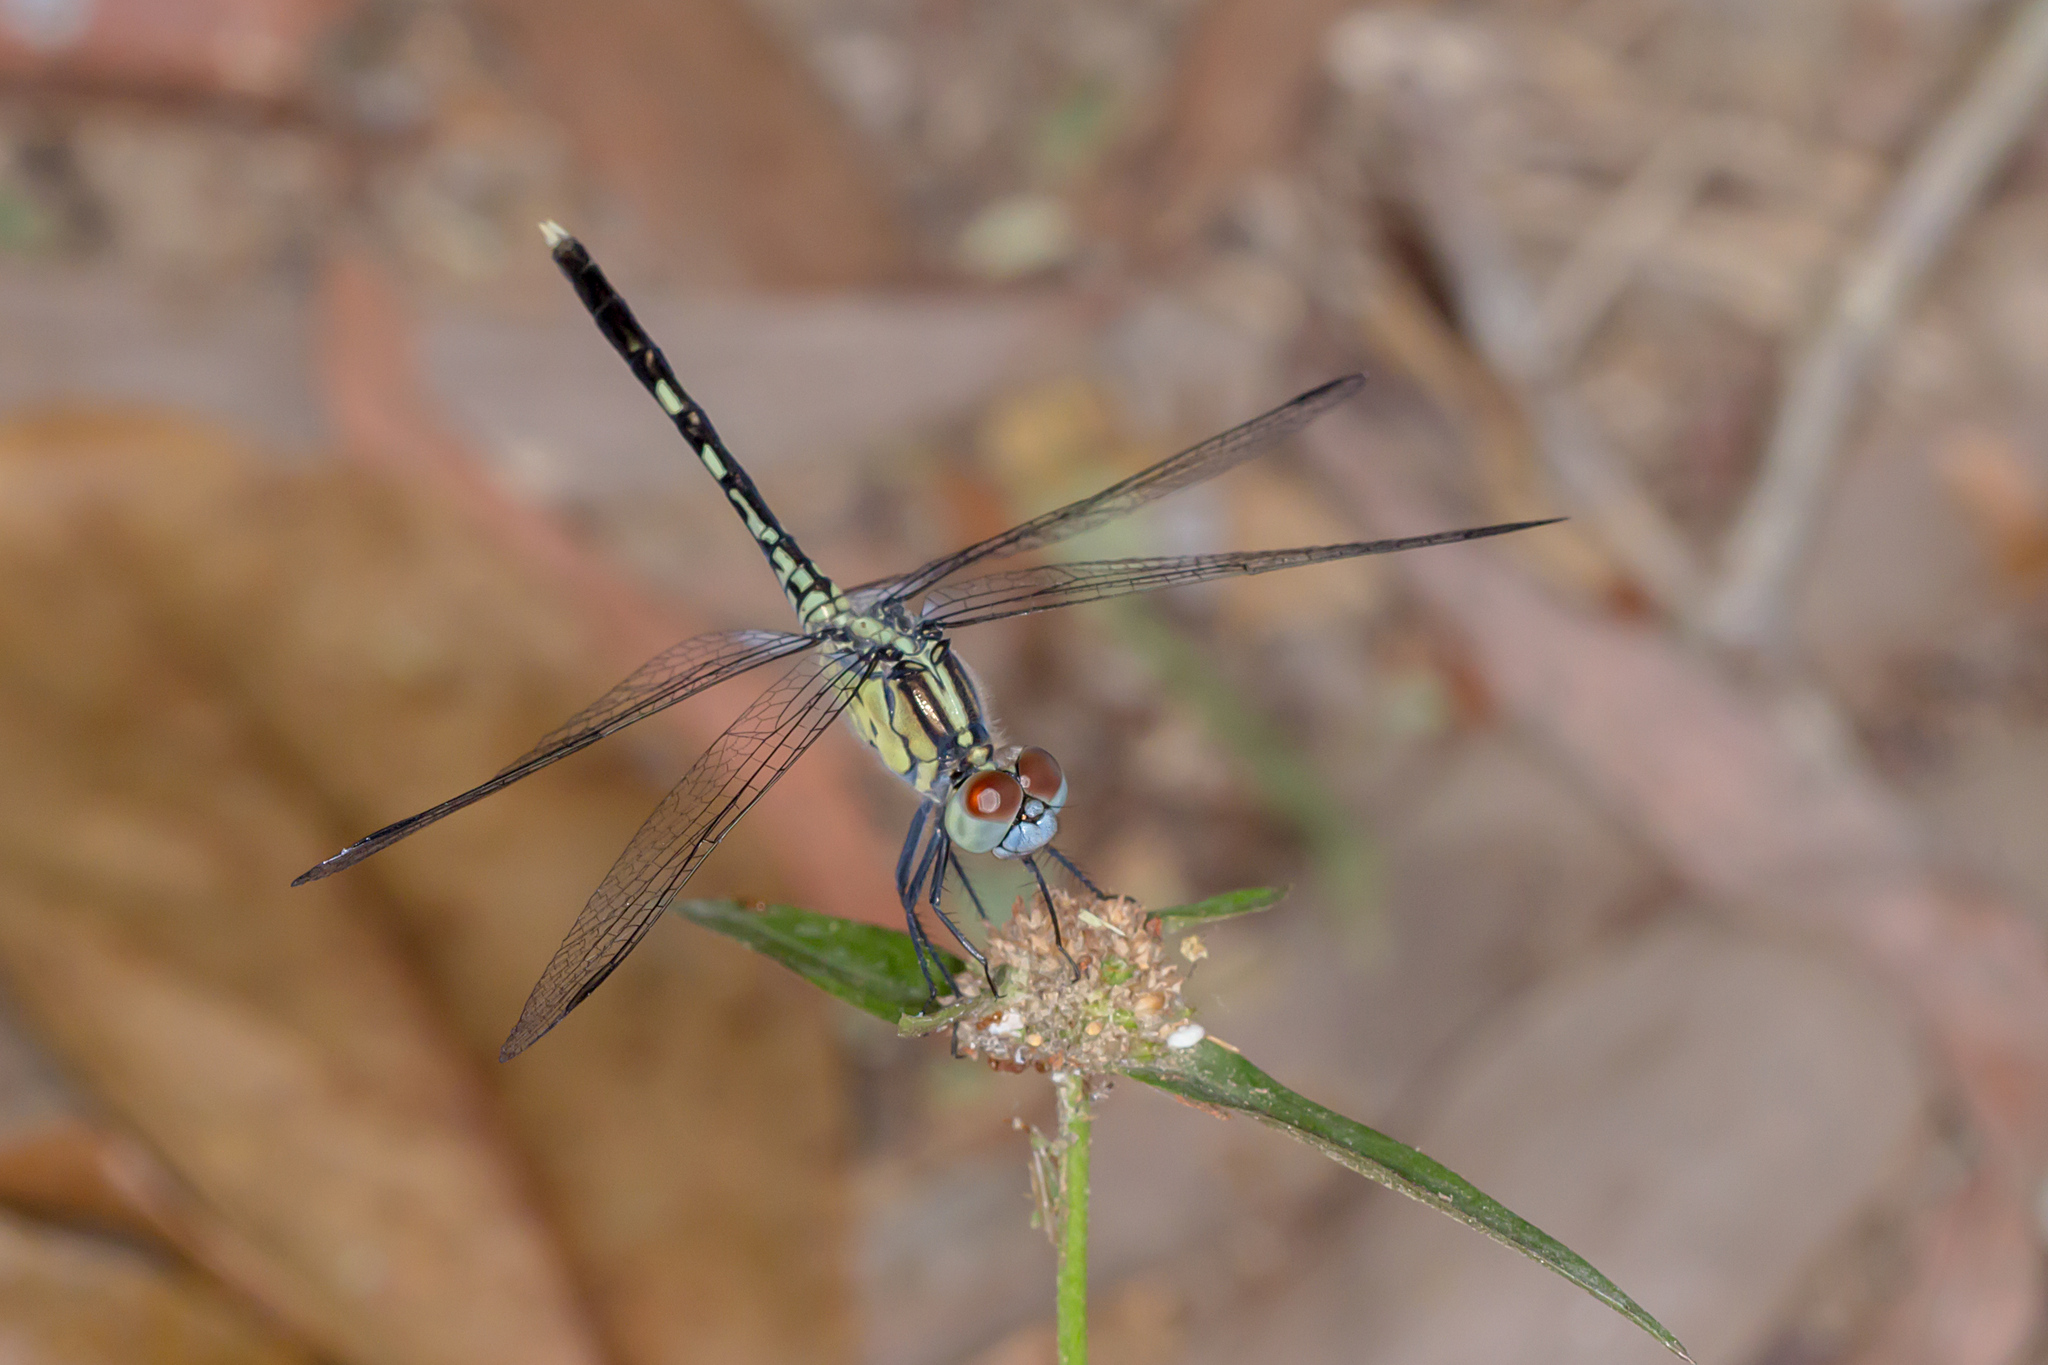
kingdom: Animalia
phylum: Arthropoda
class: Insecta
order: Odonata
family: Libellulidae
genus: Diplacodes
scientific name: Diplacodes trivialis
